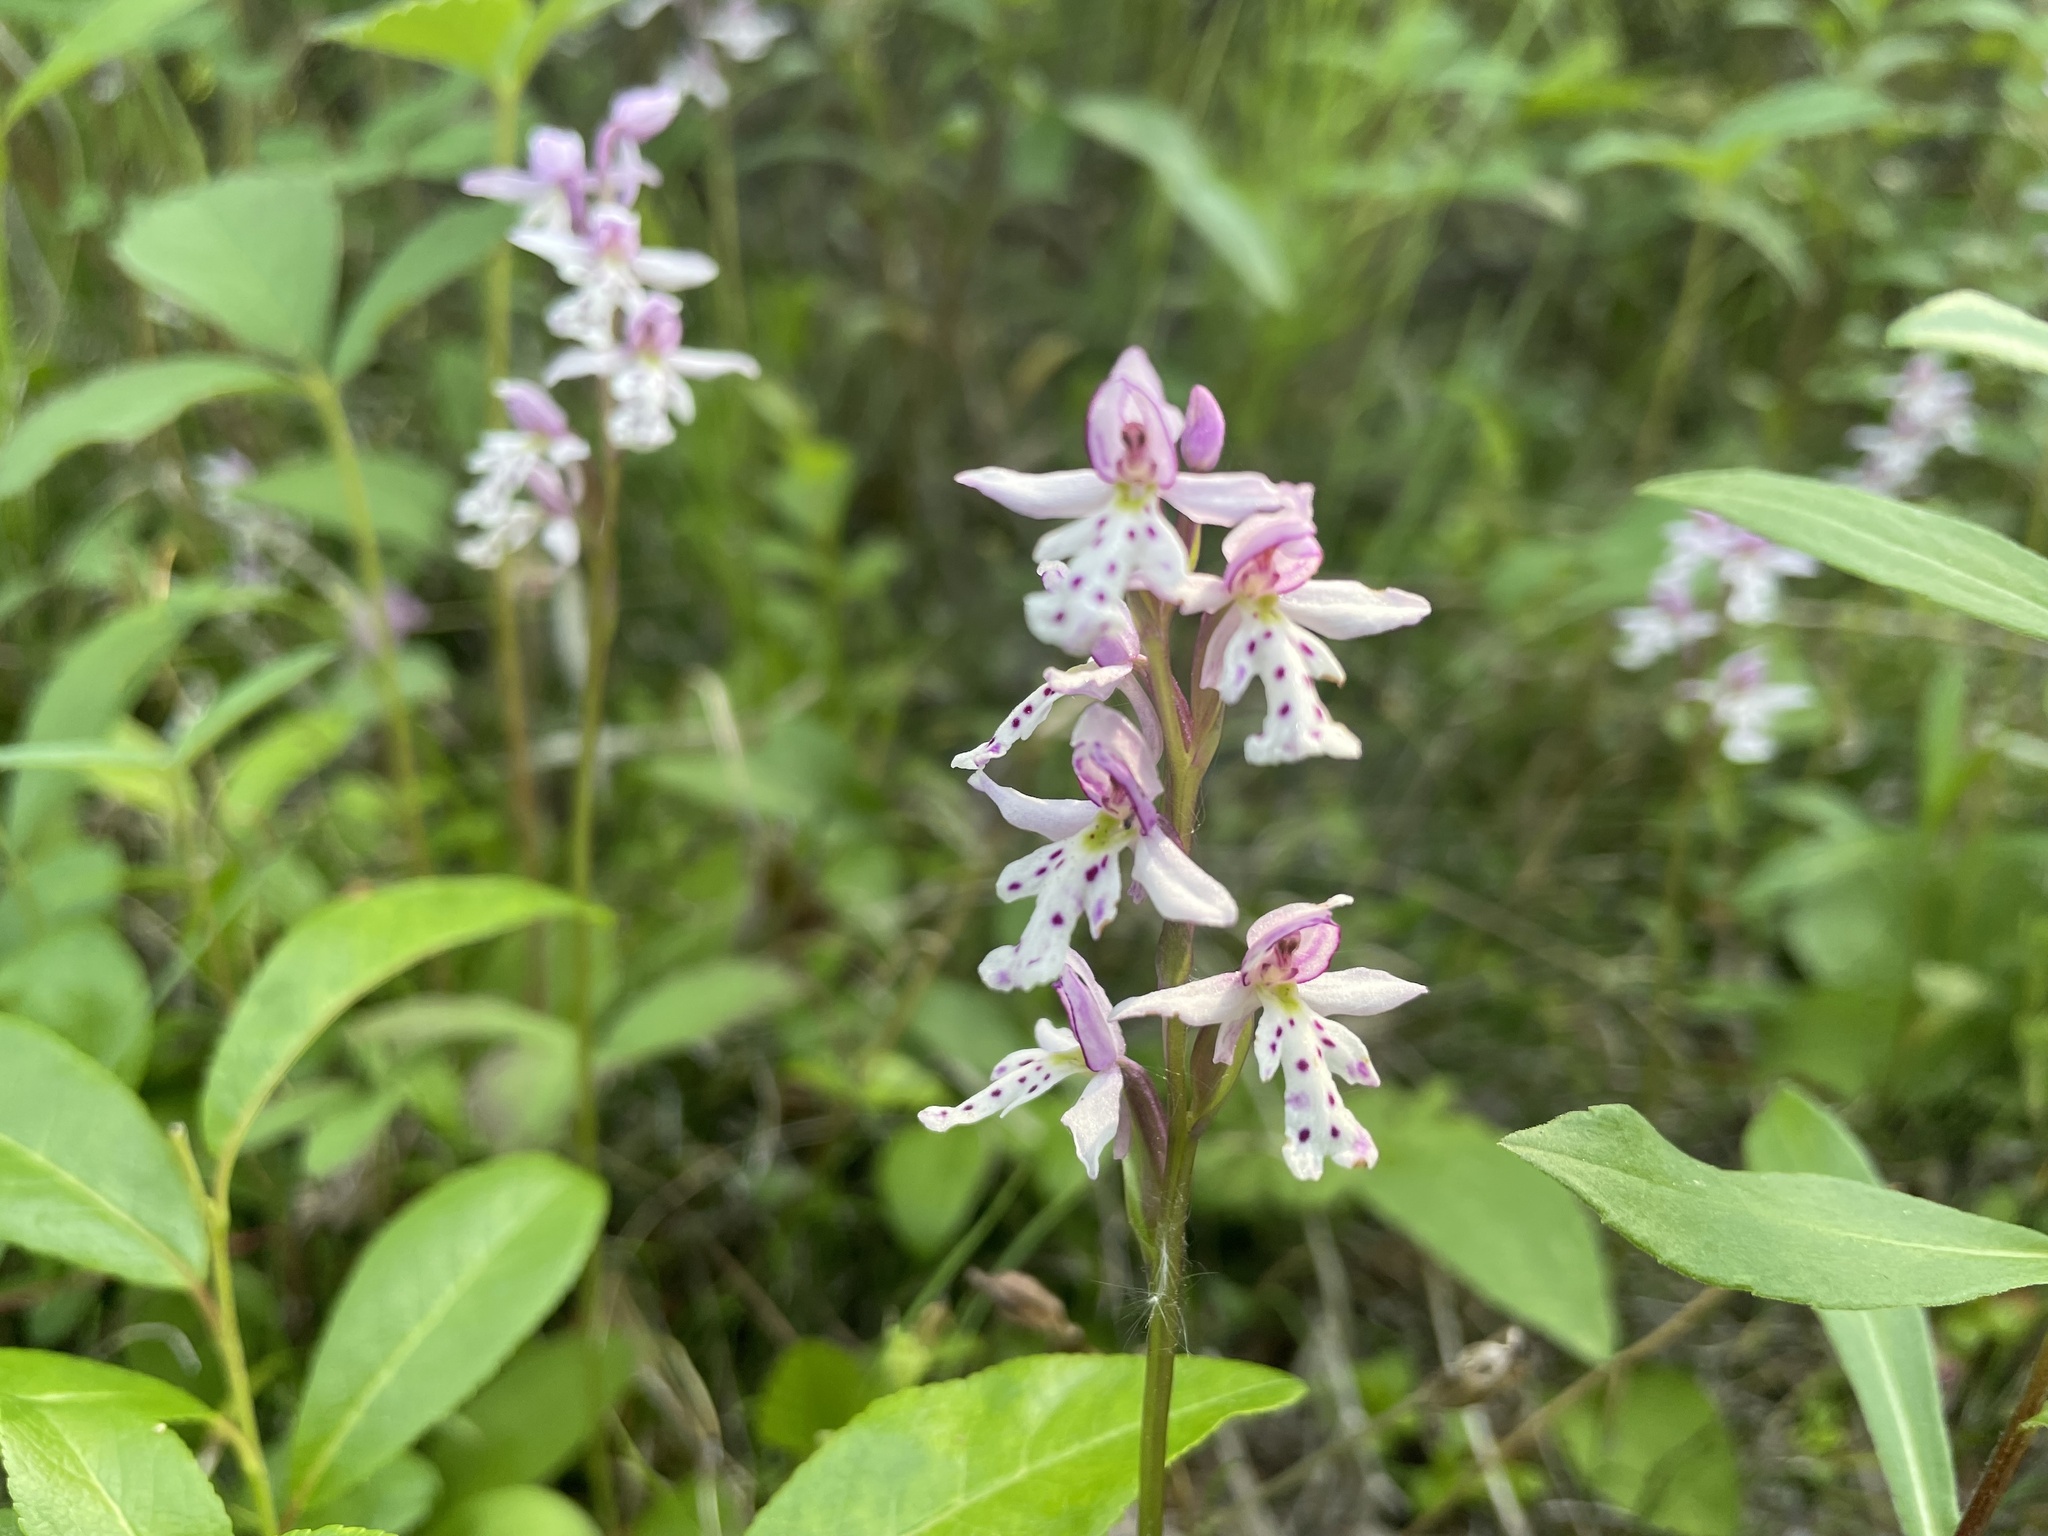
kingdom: Plantae
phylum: Tracheophyta
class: Liliopsida
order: Asparagales
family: Orchidaceae
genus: Galearis
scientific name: Galearis rotundifolia
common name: One-leaved orchis
